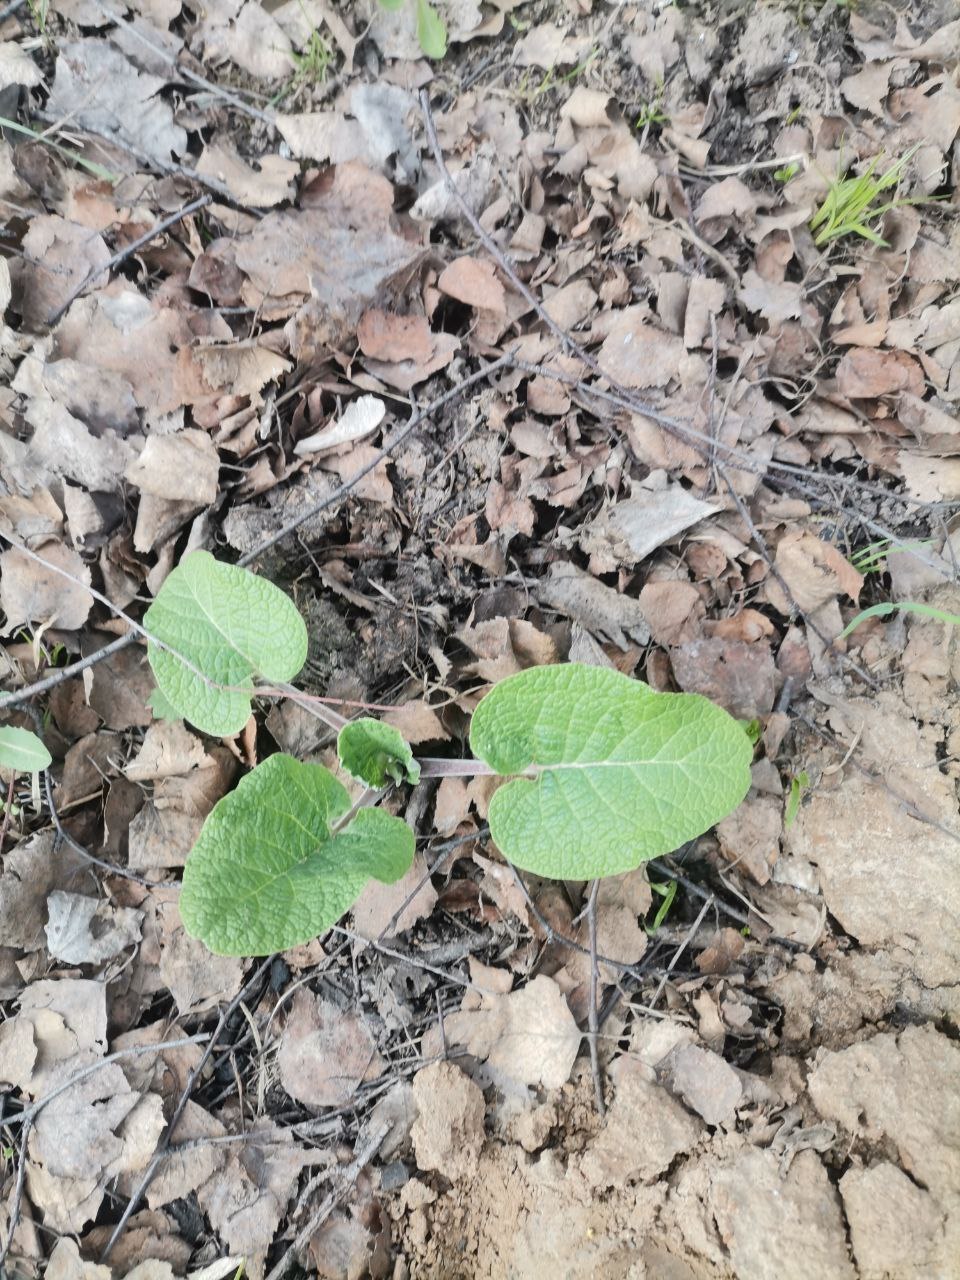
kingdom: Plantae
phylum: Tracheophyta
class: Magnoliopsida
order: Asterales
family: Asteraceae
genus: Arctium
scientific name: Arctium
